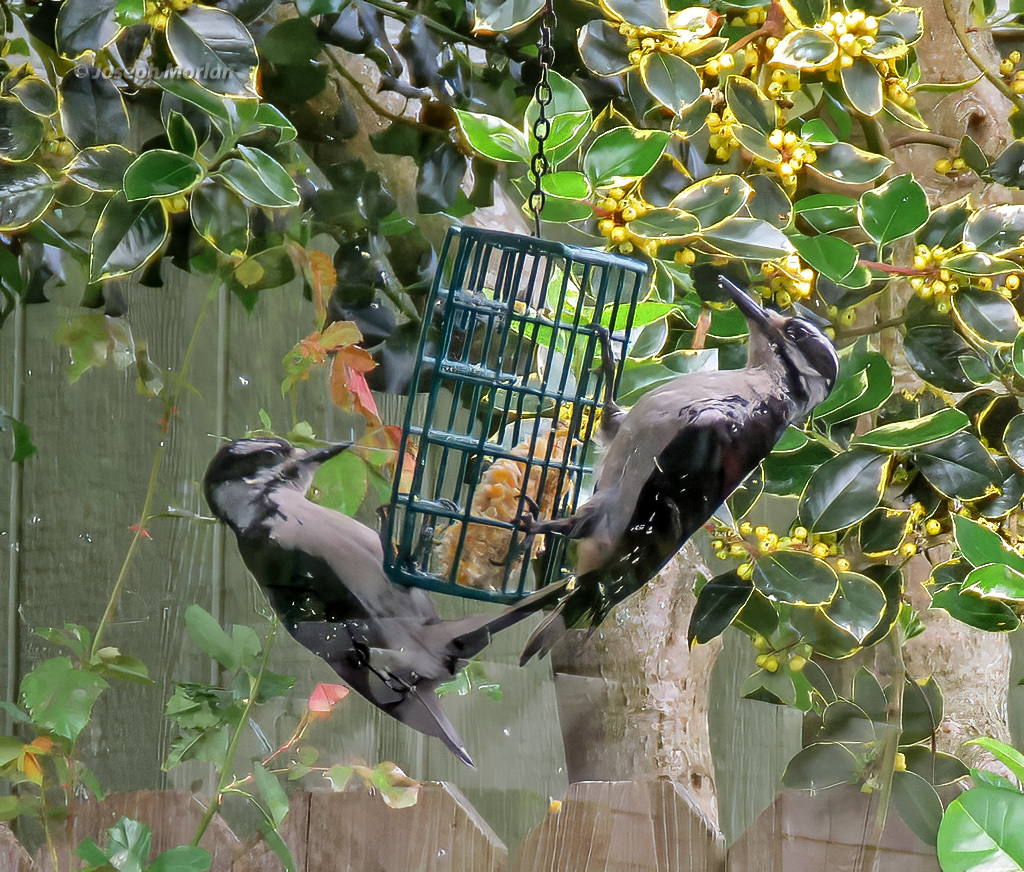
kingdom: Animalia
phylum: Chordata
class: Aves
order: Piciformes
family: Picidae
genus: Leuconotopicus
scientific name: Leuconotopicus villosus
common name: Hairy woodpecker
